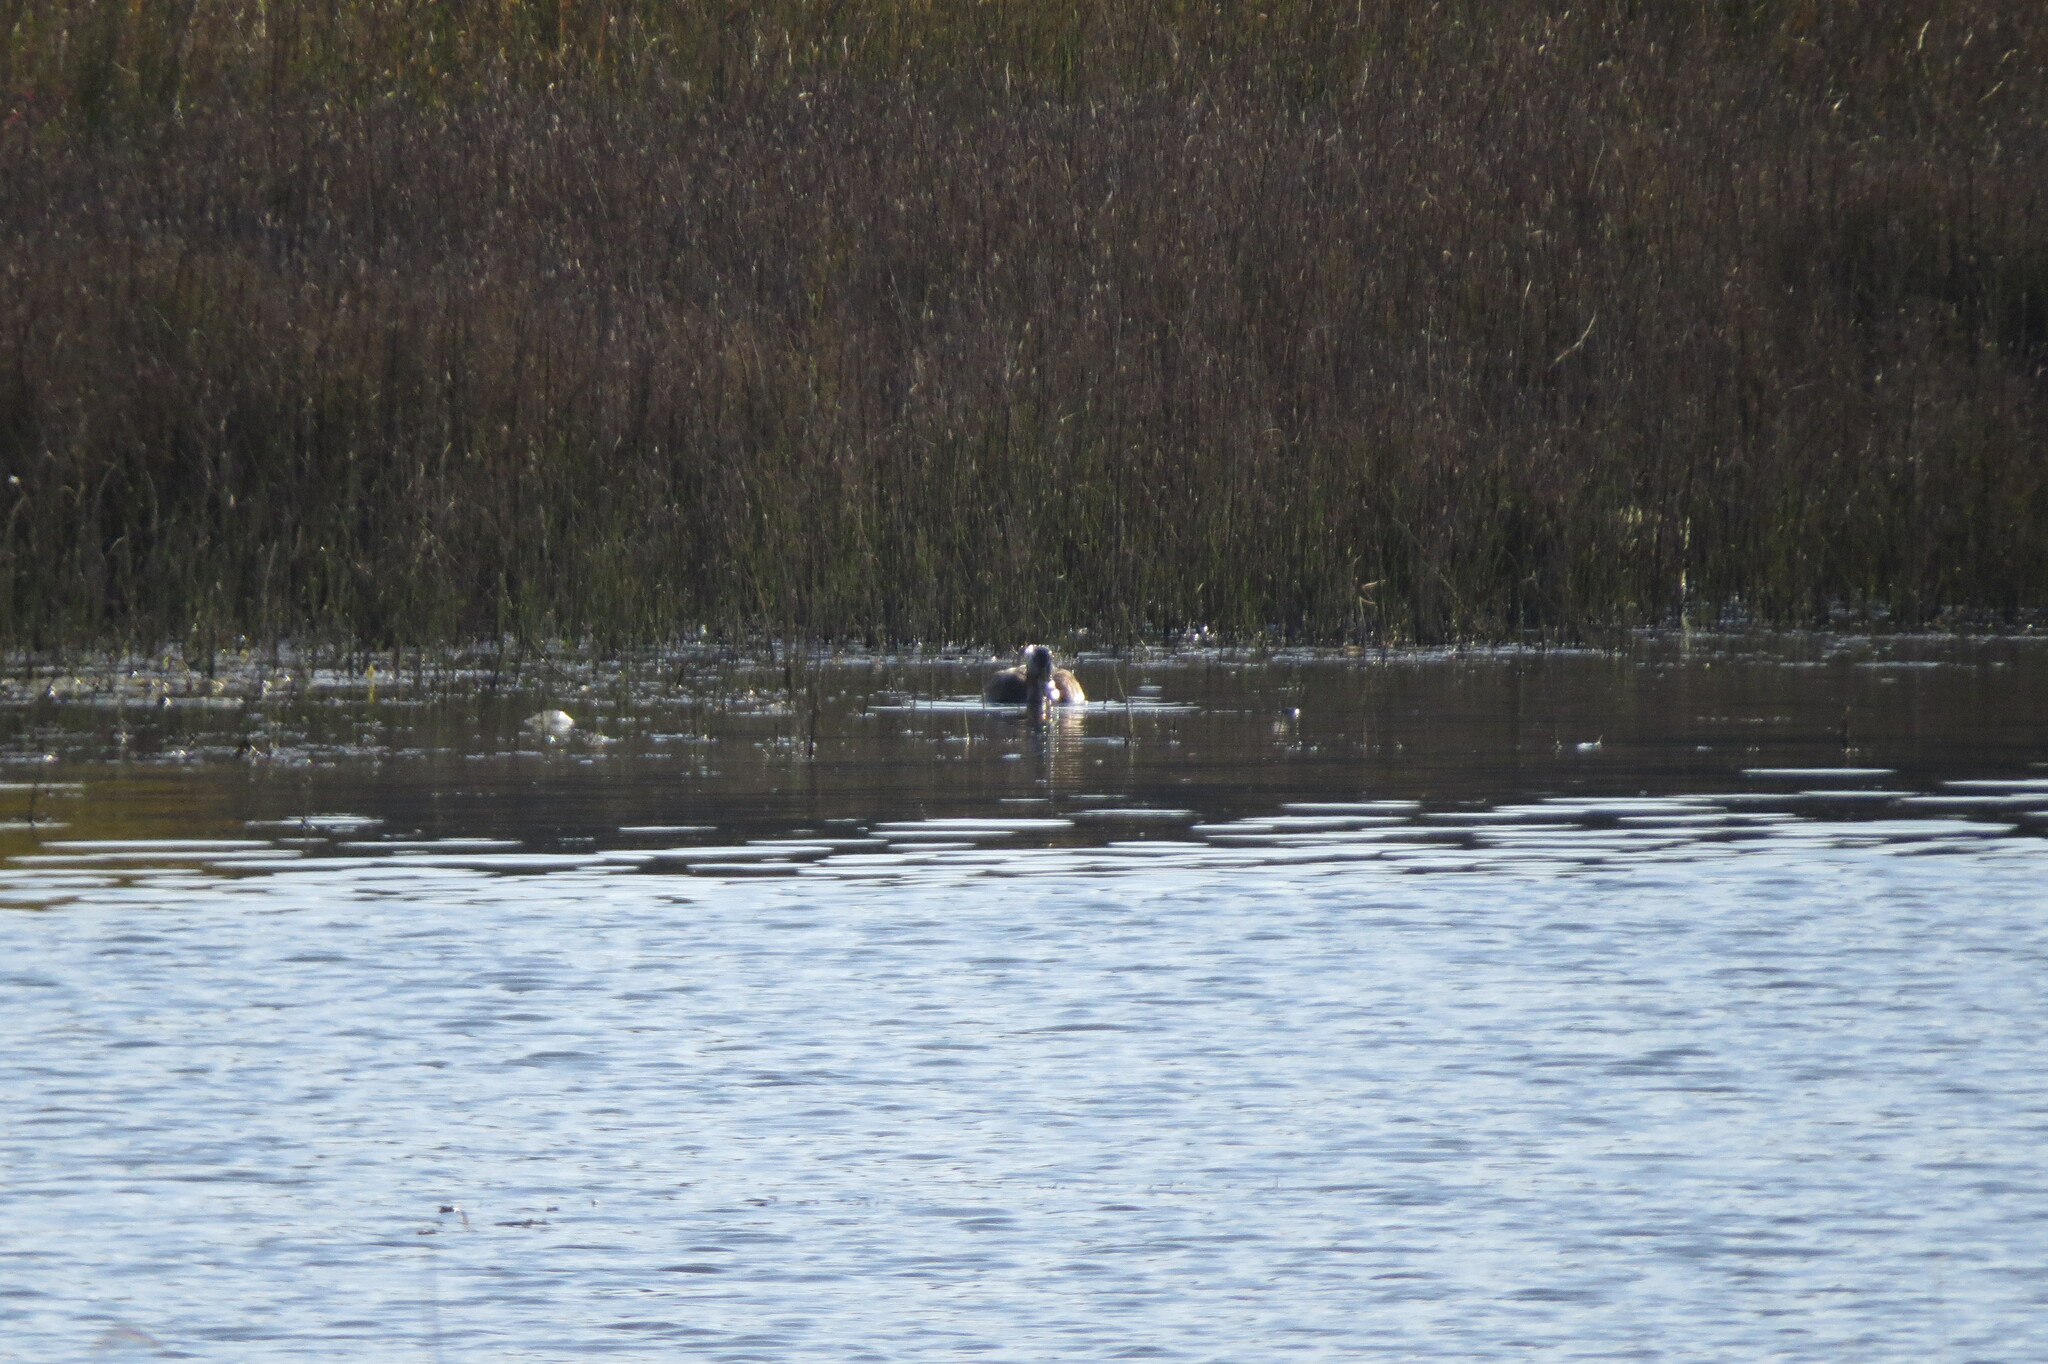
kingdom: Animalia
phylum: Chordata
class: Aves
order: Anseriformes
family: Anatidae
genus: Anas
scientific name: Anas platyrhynchos
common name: Mallard
